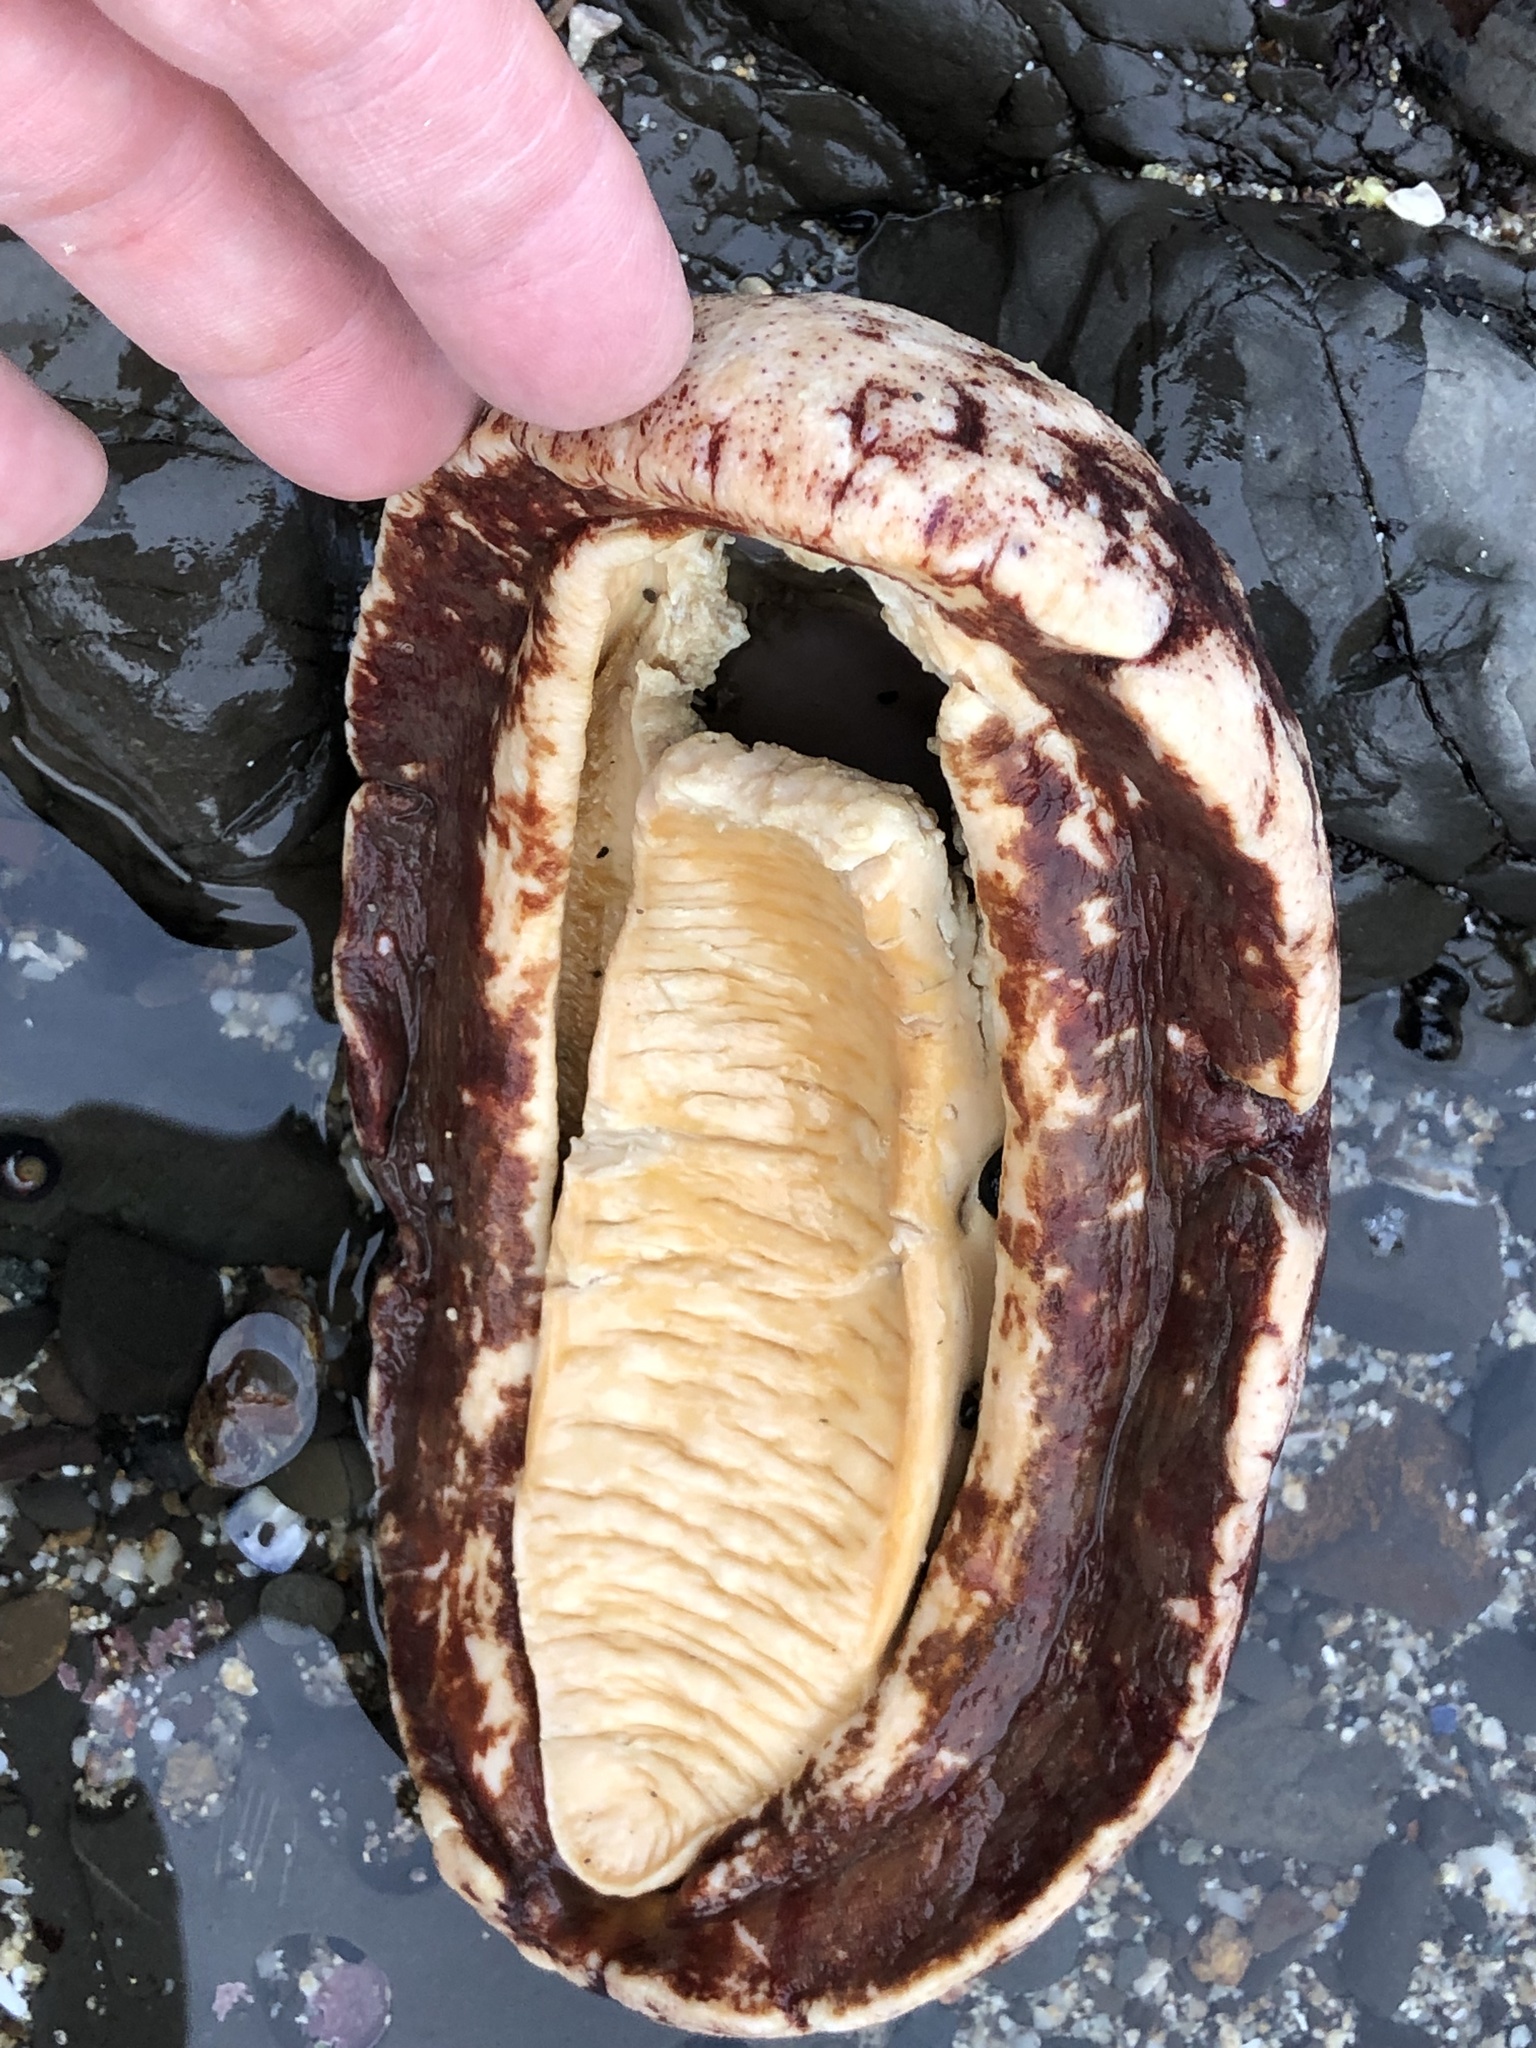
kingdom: Animalia
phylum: Mollusca
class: Polyplacophora
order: Chitonida
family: Acanthochitonidae
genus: Cryptochiton
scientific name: Cryptochiton stelleri
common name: Giant pacific chiton
